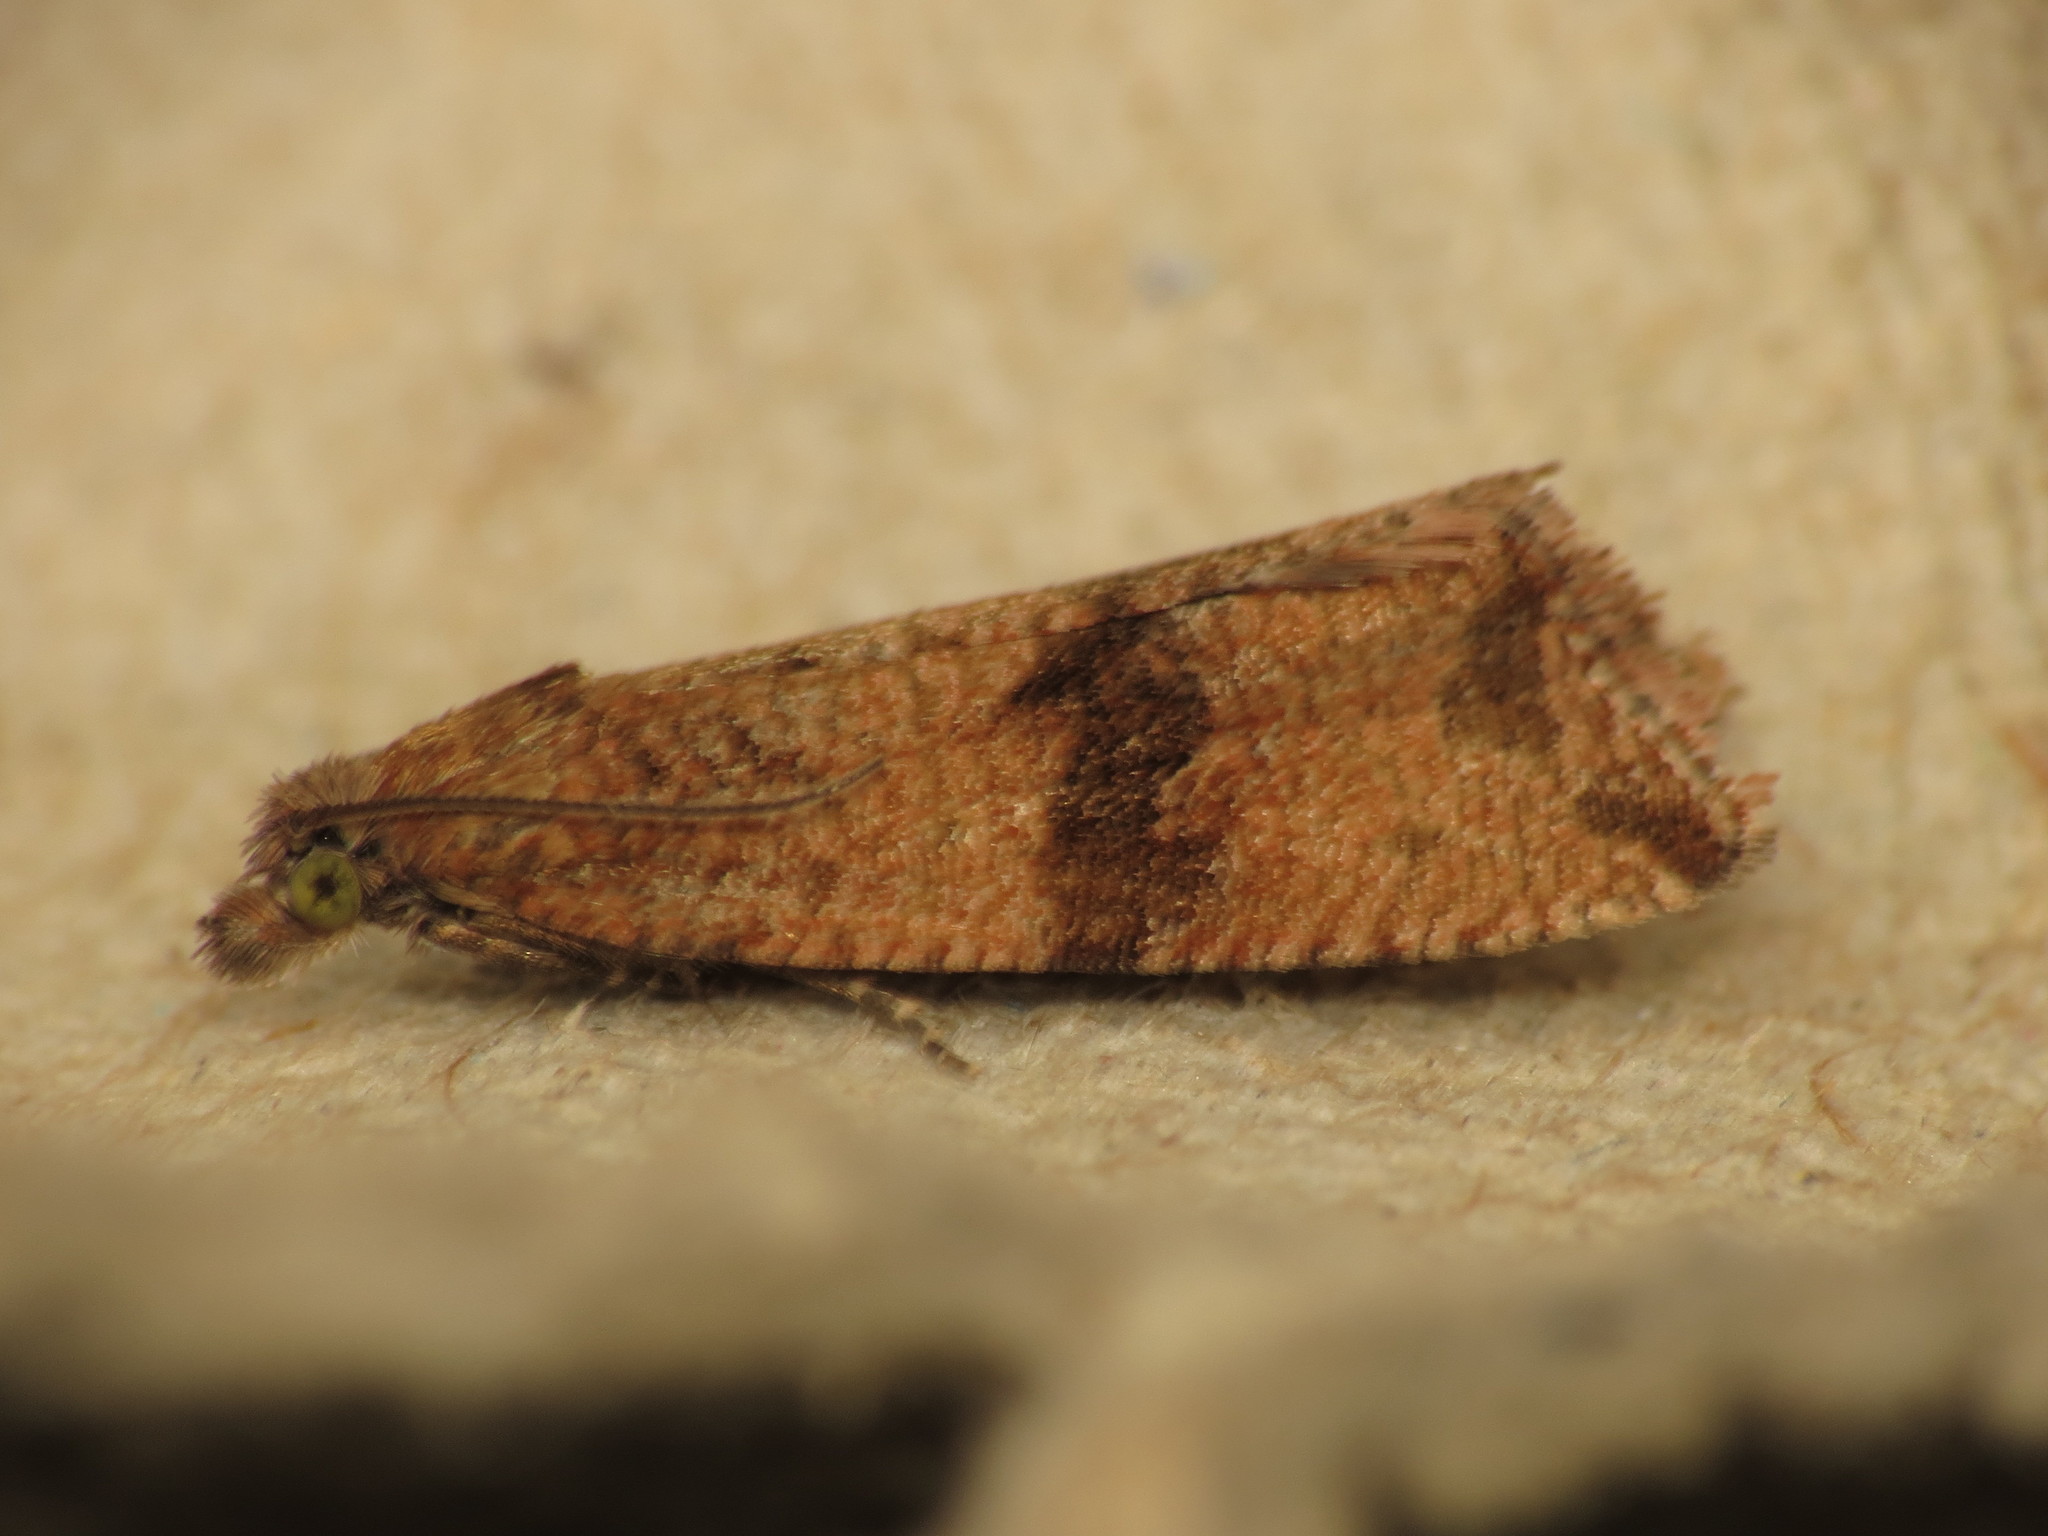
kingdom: Animalia
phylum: Arthropoda
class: Insecta
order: Lepidoptera
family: Tortricidae
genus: Celypha
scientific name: Celypha striana
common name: Barred marble
